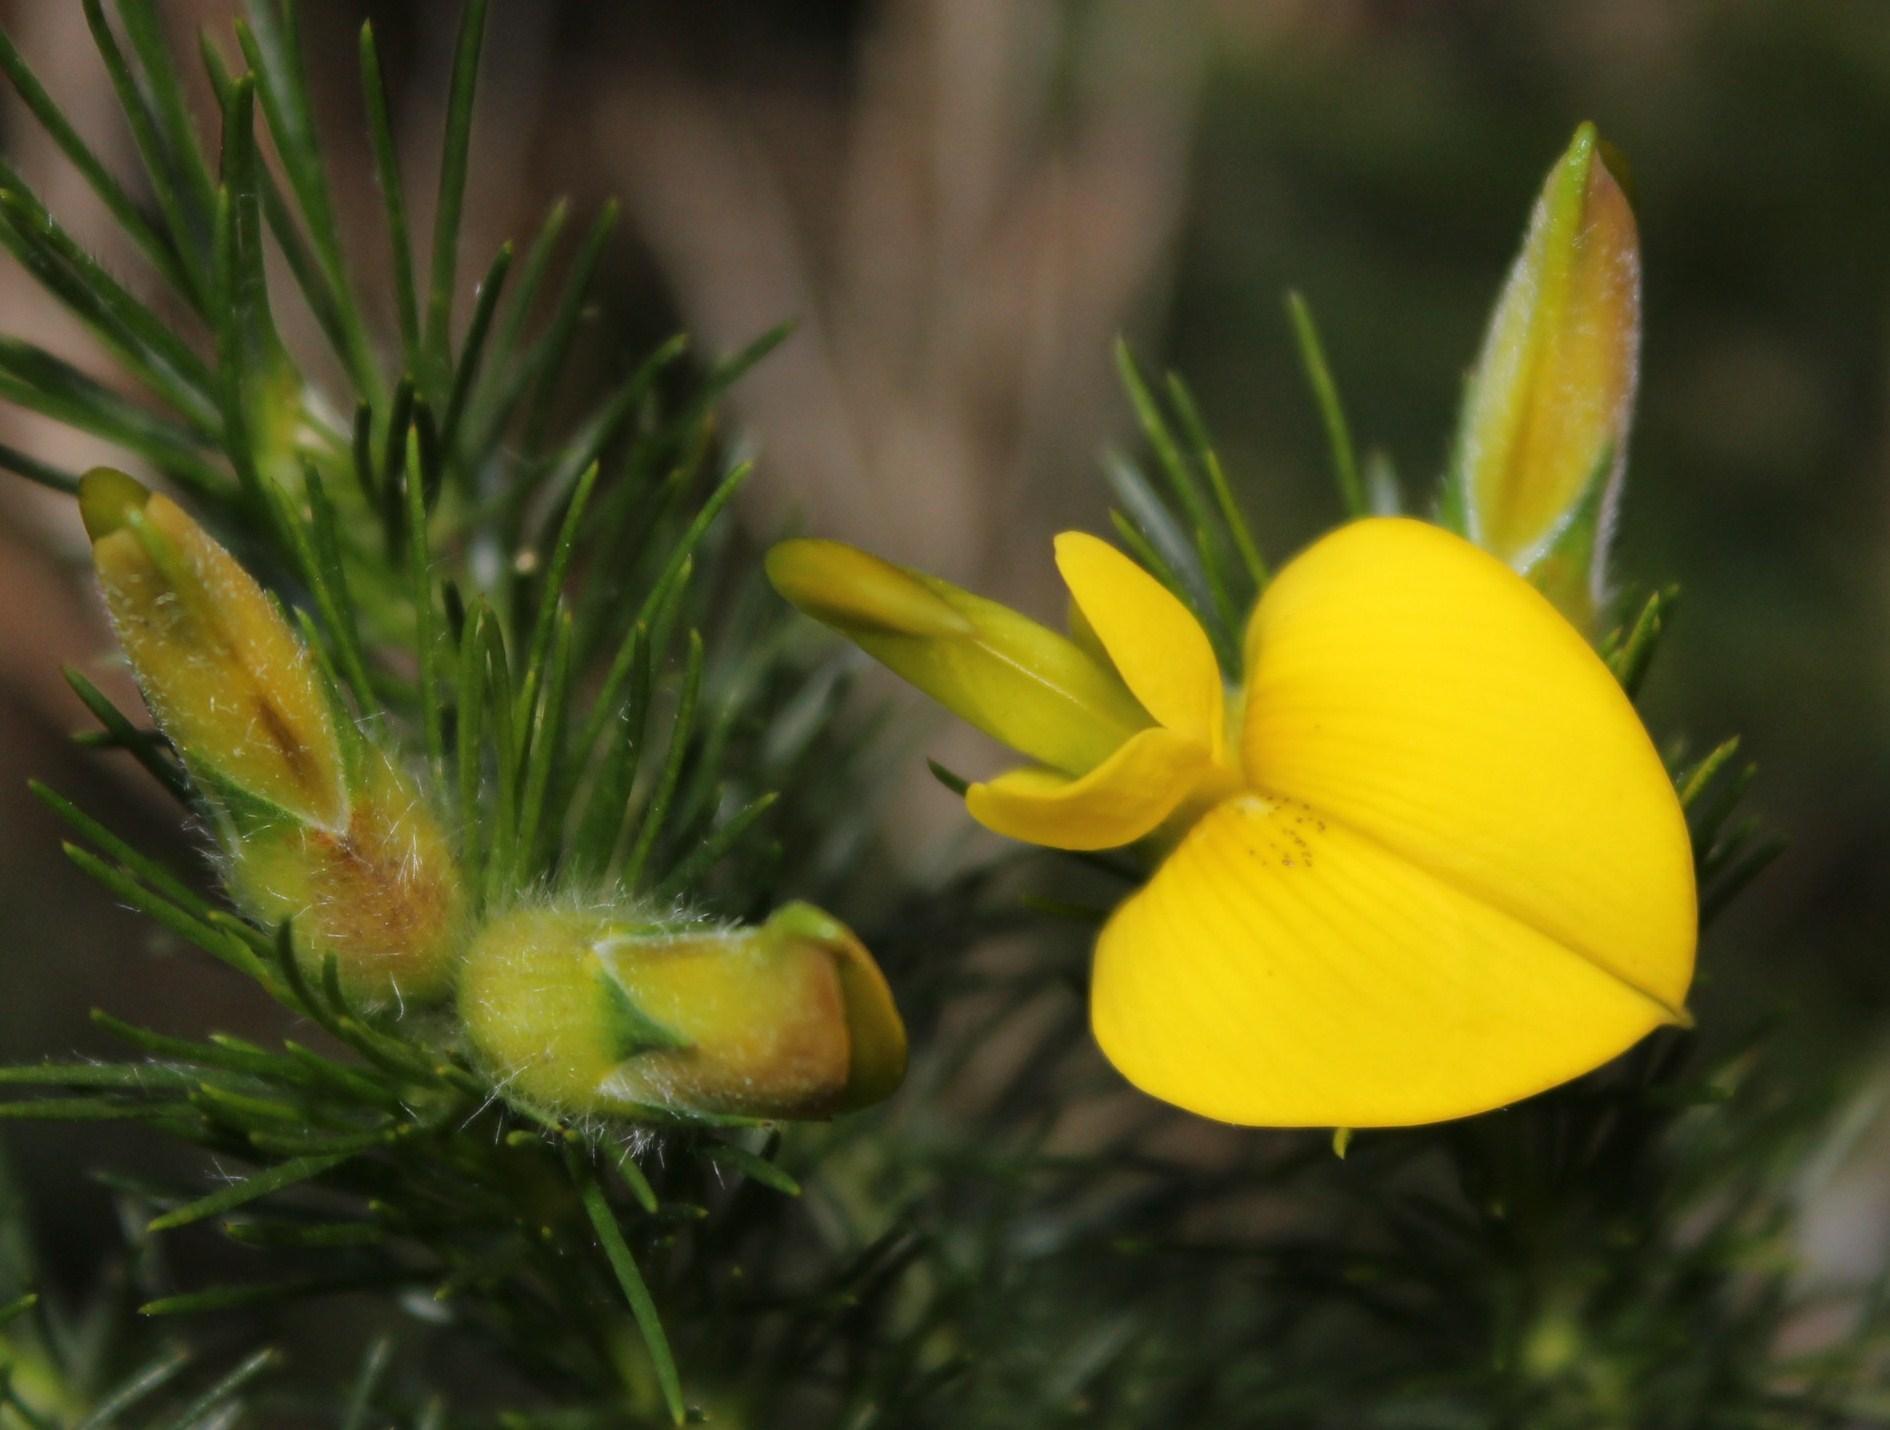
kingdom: Plantae
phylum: Tracheophyta
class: Magnoliopsida
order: Fabales
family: Fabaceae
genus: Aspalathus
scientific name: Aspalathus macrantha
